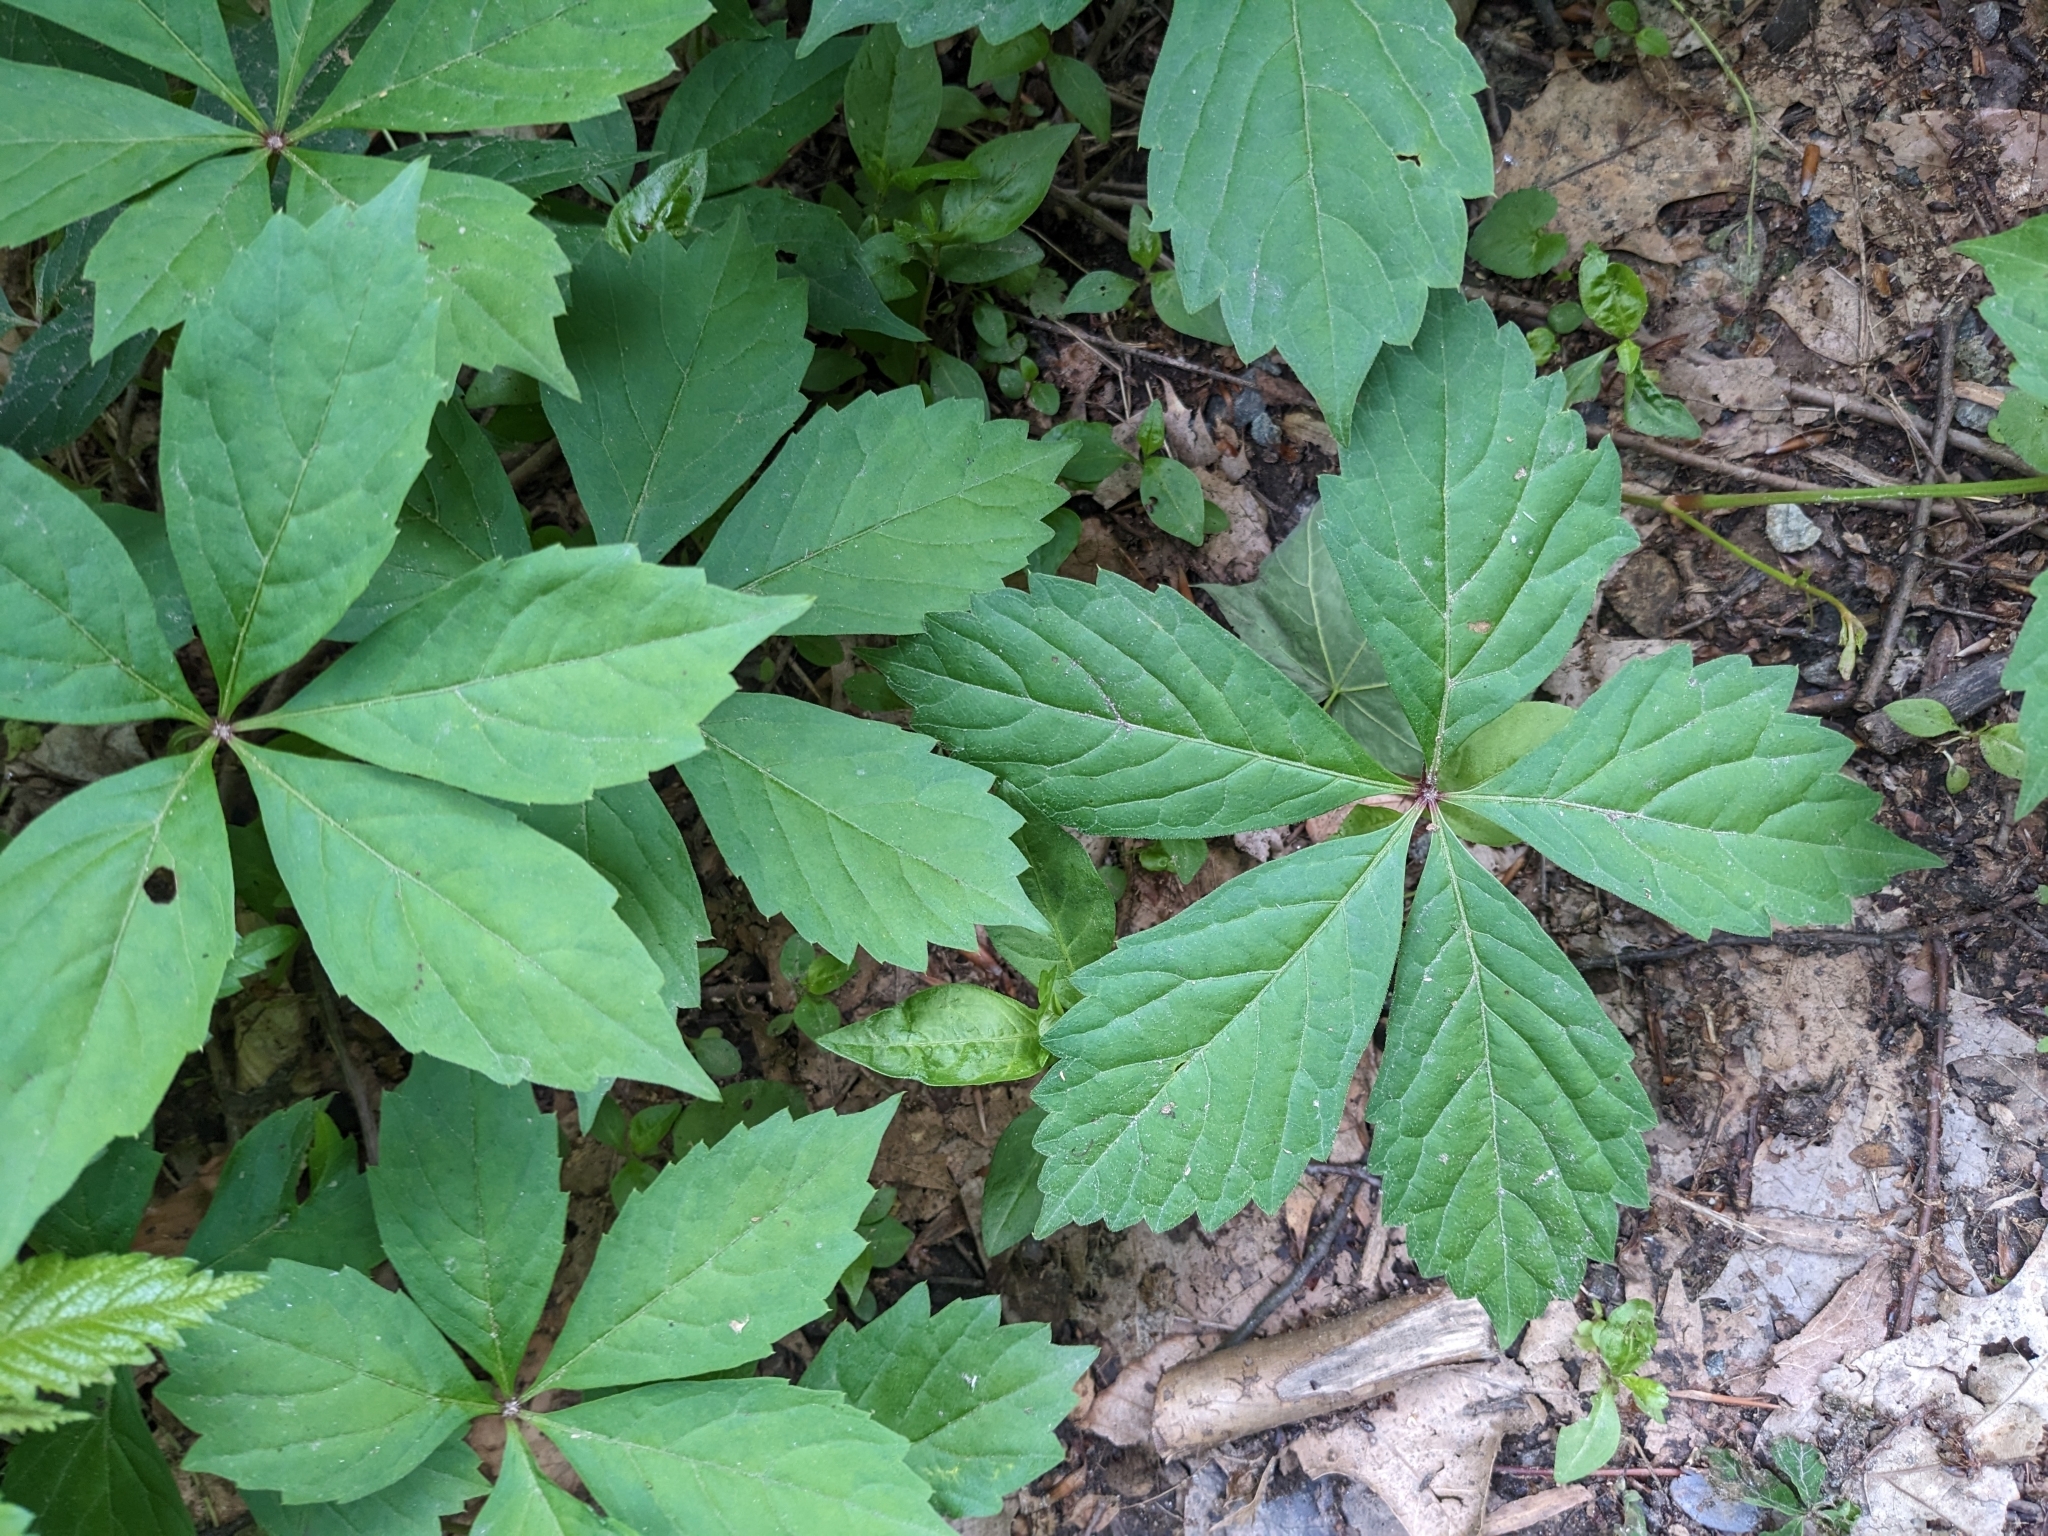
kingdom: Plantae
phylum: Tracheophyta
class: Magnoliopsida
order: Vitales
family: Vitaceae
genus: Parthenocissus
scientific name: Parthenocissus quinquefolia
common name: Virginia-creeper
